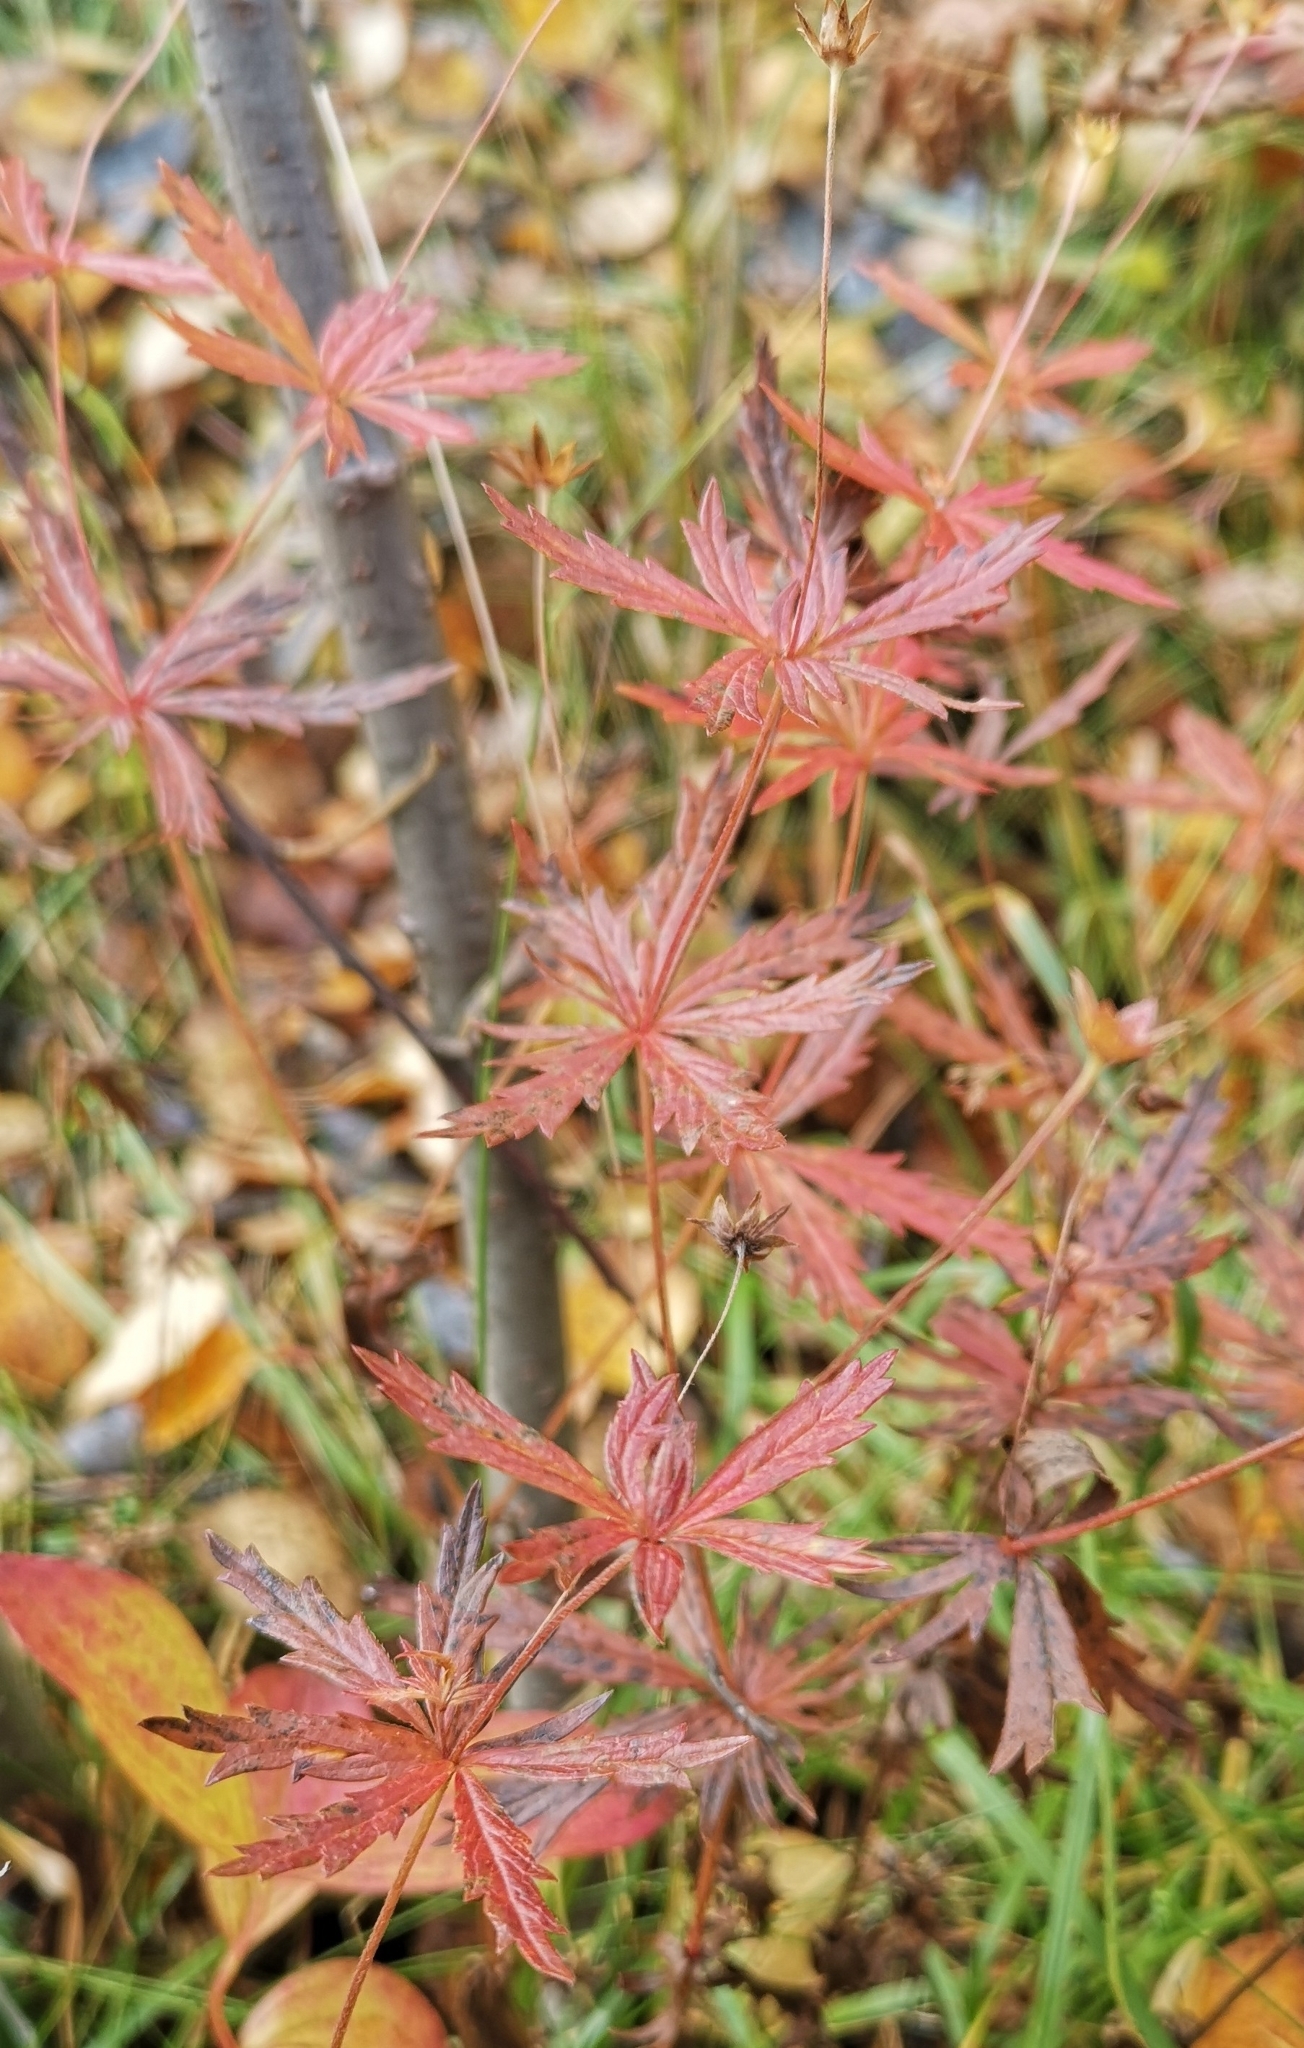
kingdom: Plantae
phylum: Tracheophyta
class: Magnoliopsida
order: Rosales
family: Rosaceae
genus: Potentilla
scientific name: Potentilla erecta
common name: Tormentil
